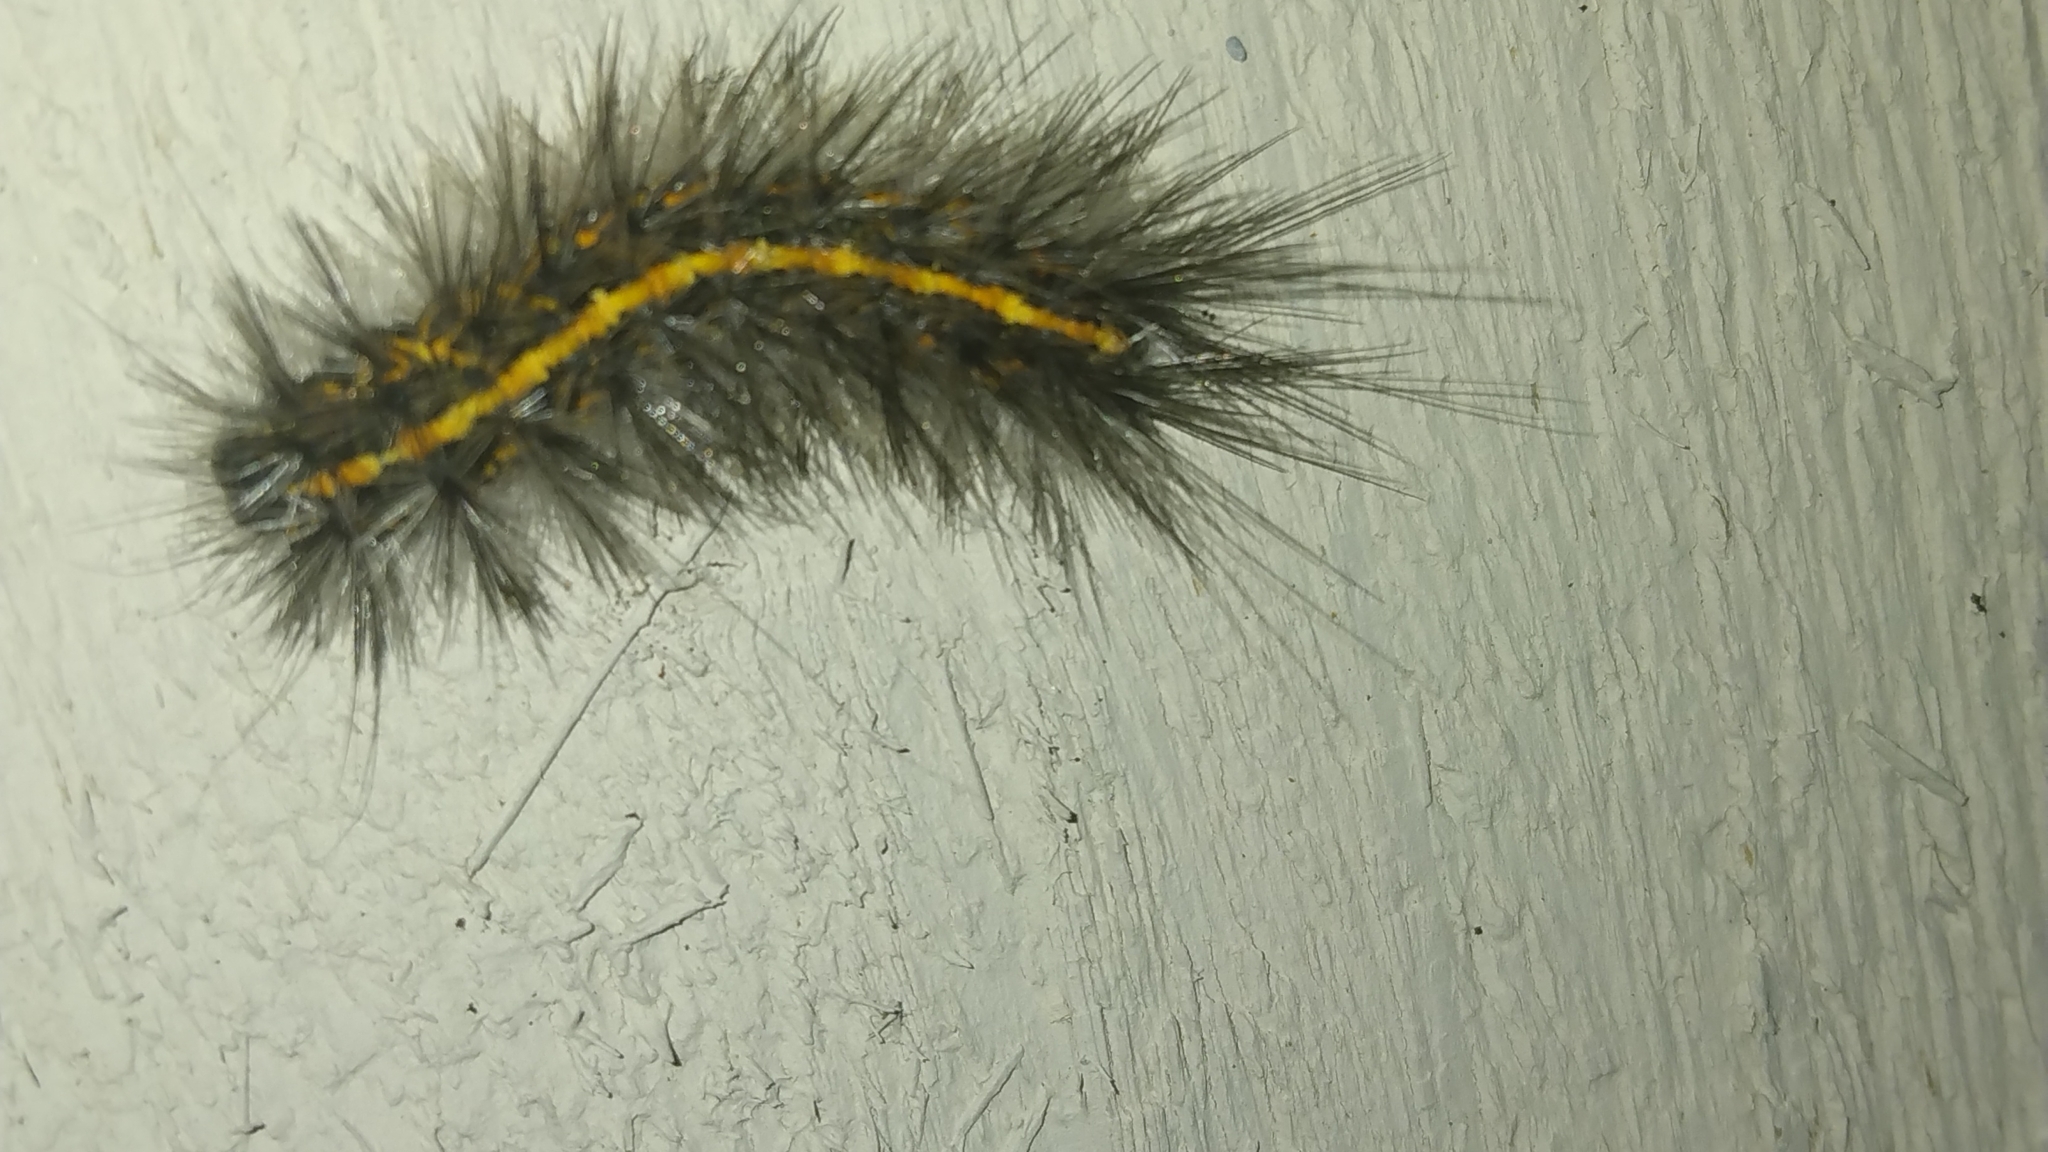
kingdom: Animalia
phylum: Arthropoda
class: Insecta
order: Lepidoptera
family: Erebidae
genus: Spilosoma
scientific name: Spilosoma dubia
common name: Dubious tiger moth
